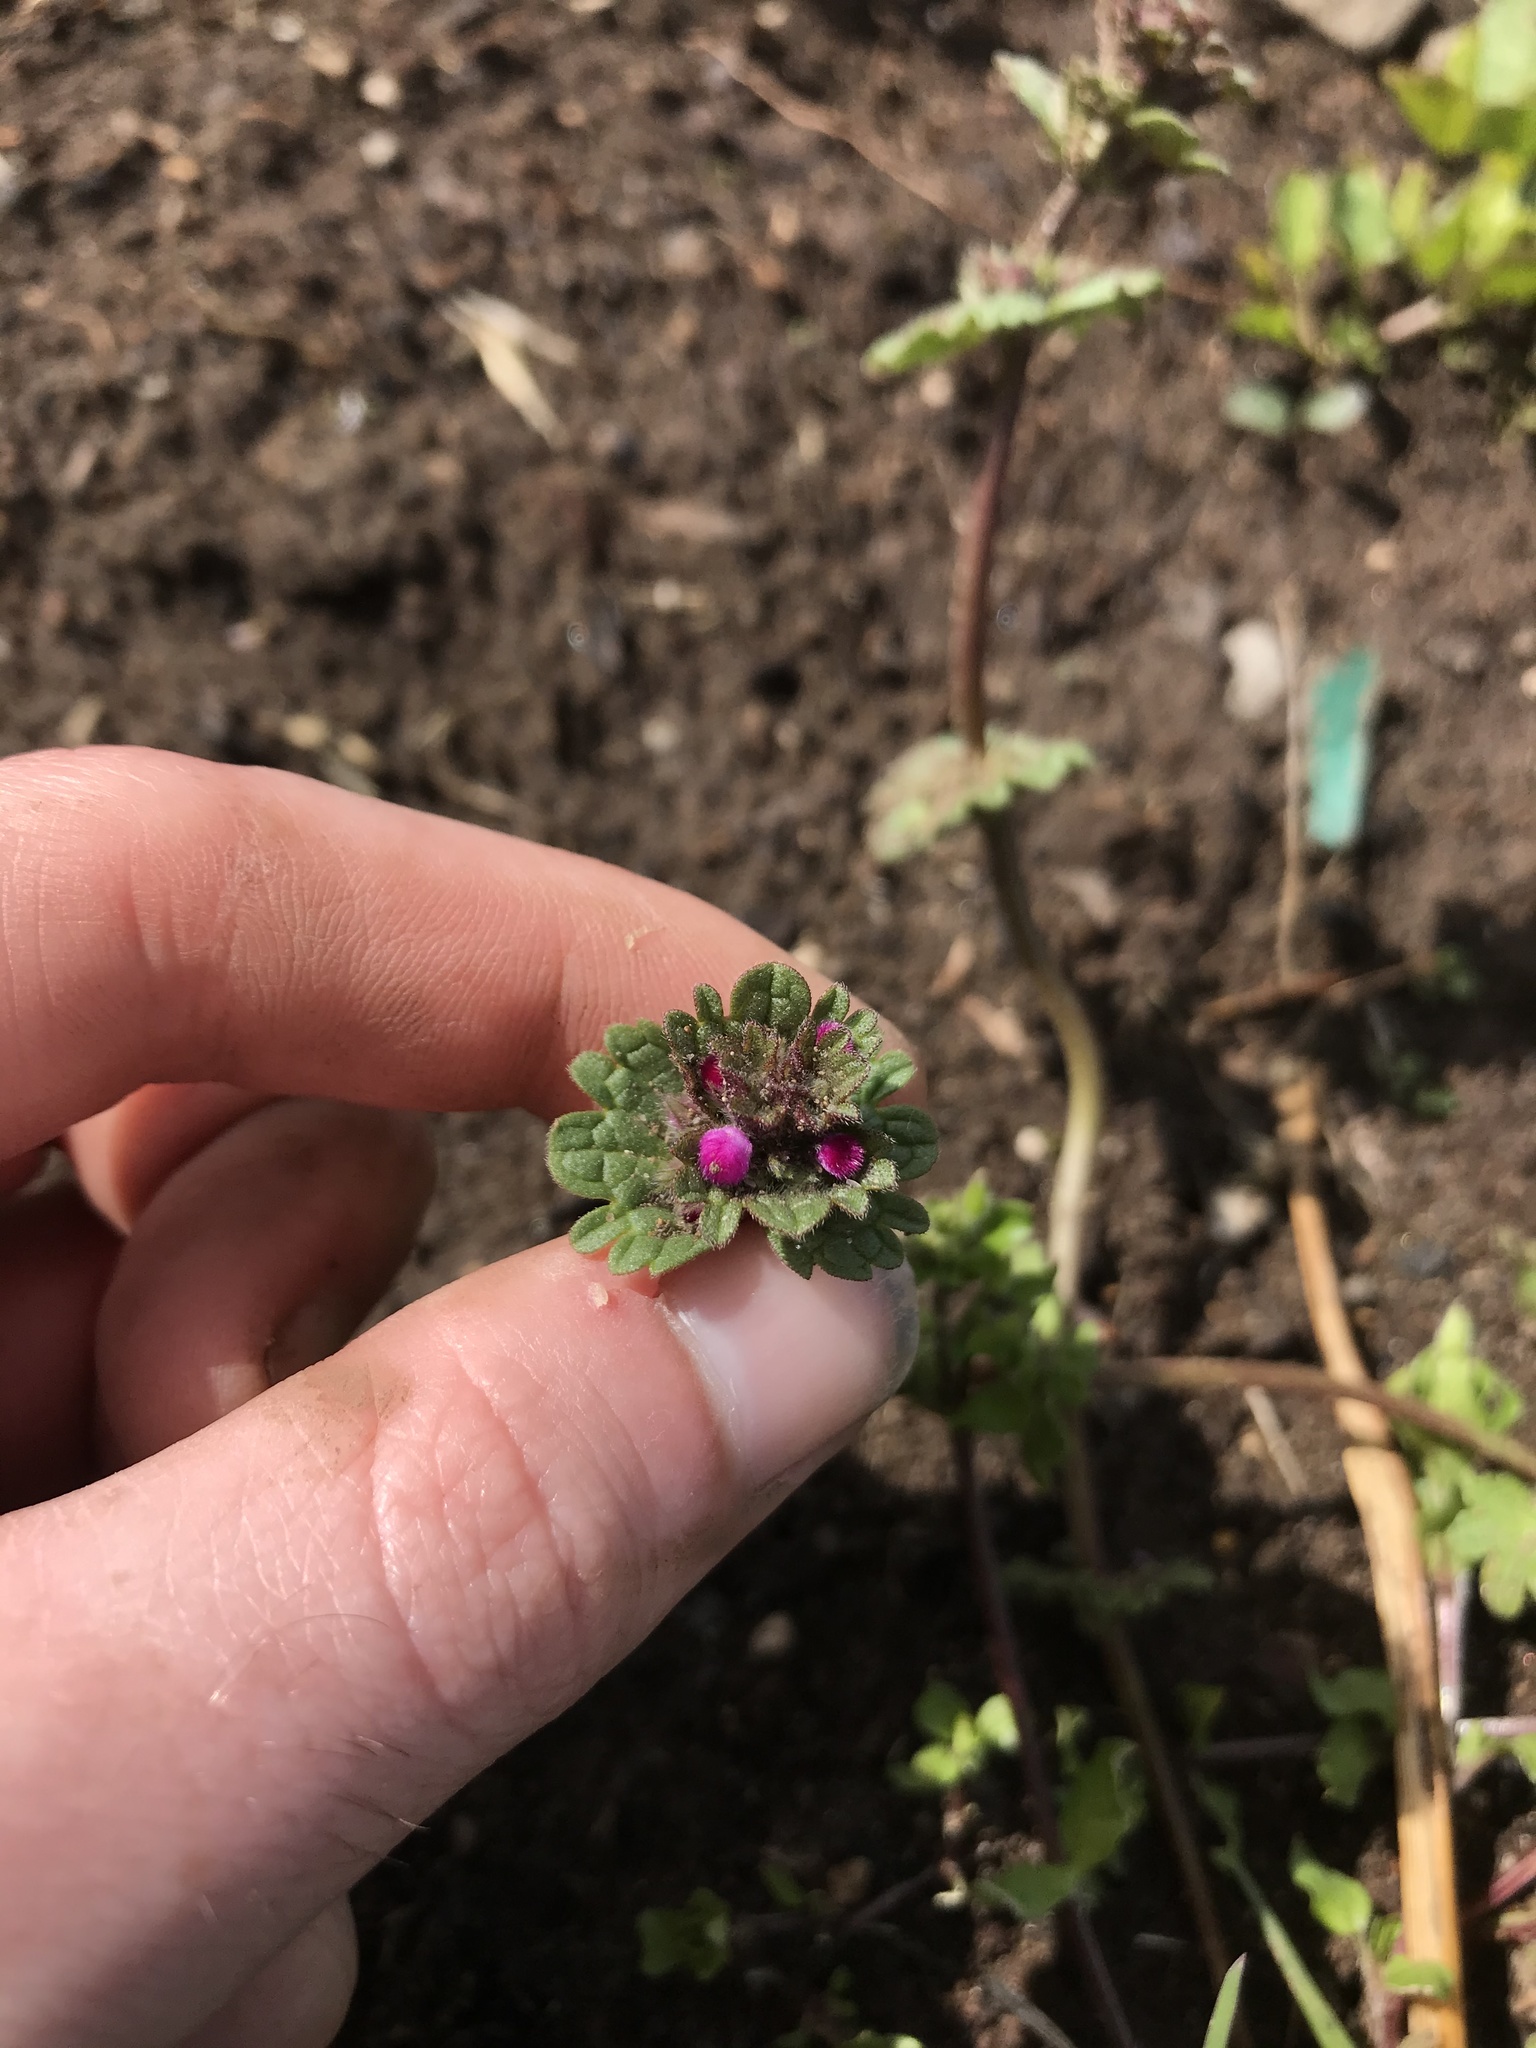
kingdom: Plantae
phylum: Tracheophyta
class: Magnoliopsida
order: Lamiales
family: Lamiaceae
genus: Lamium
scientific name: Lamium amplexicaule
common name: Henbit dead-nettle
